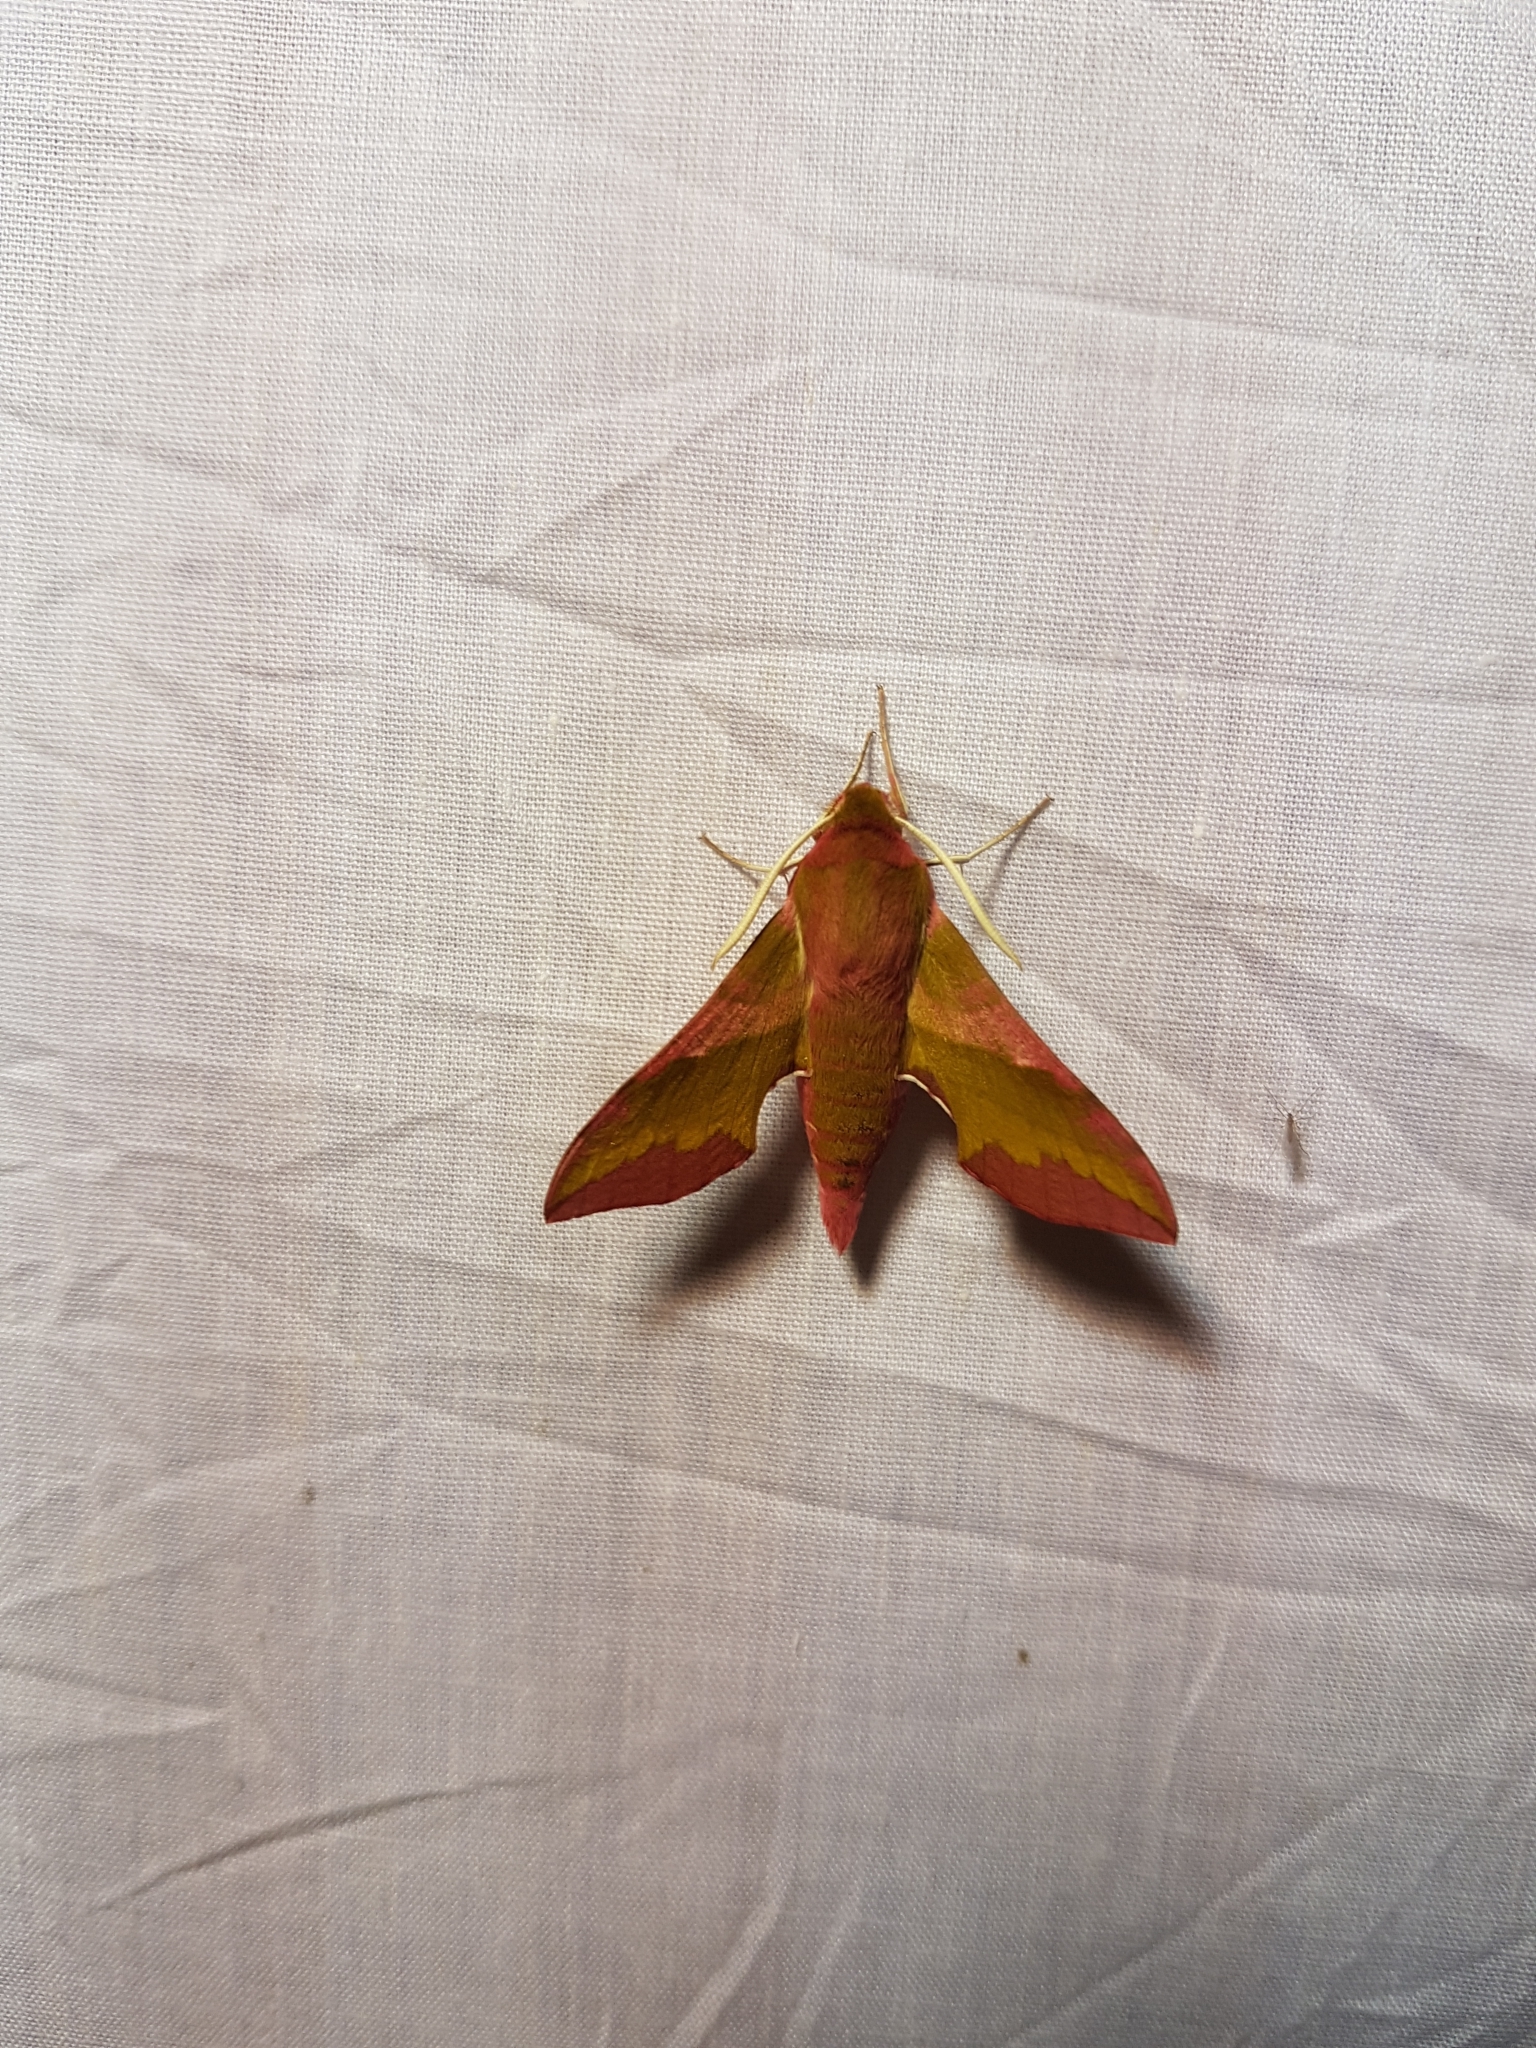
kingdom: Animalia
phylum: Arthropoda
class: Insecta
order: Lepidoptera
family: Sphingidae
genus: Deilephila
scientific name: Deilephila porcellus
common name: Small elephant hawk-moth
